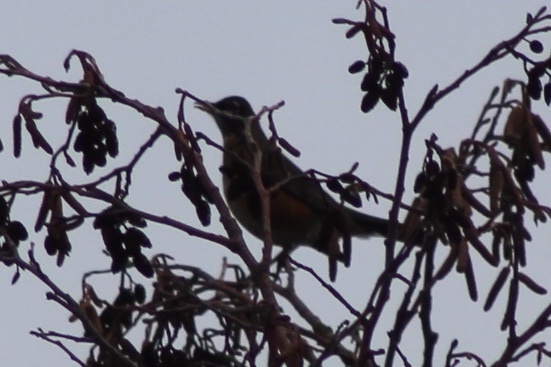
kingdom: Animalia
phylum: Chordata
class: Aves
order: Passeriformes
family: Turdidae
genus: Turdus
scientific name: Turdus migratorius
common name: American robin
